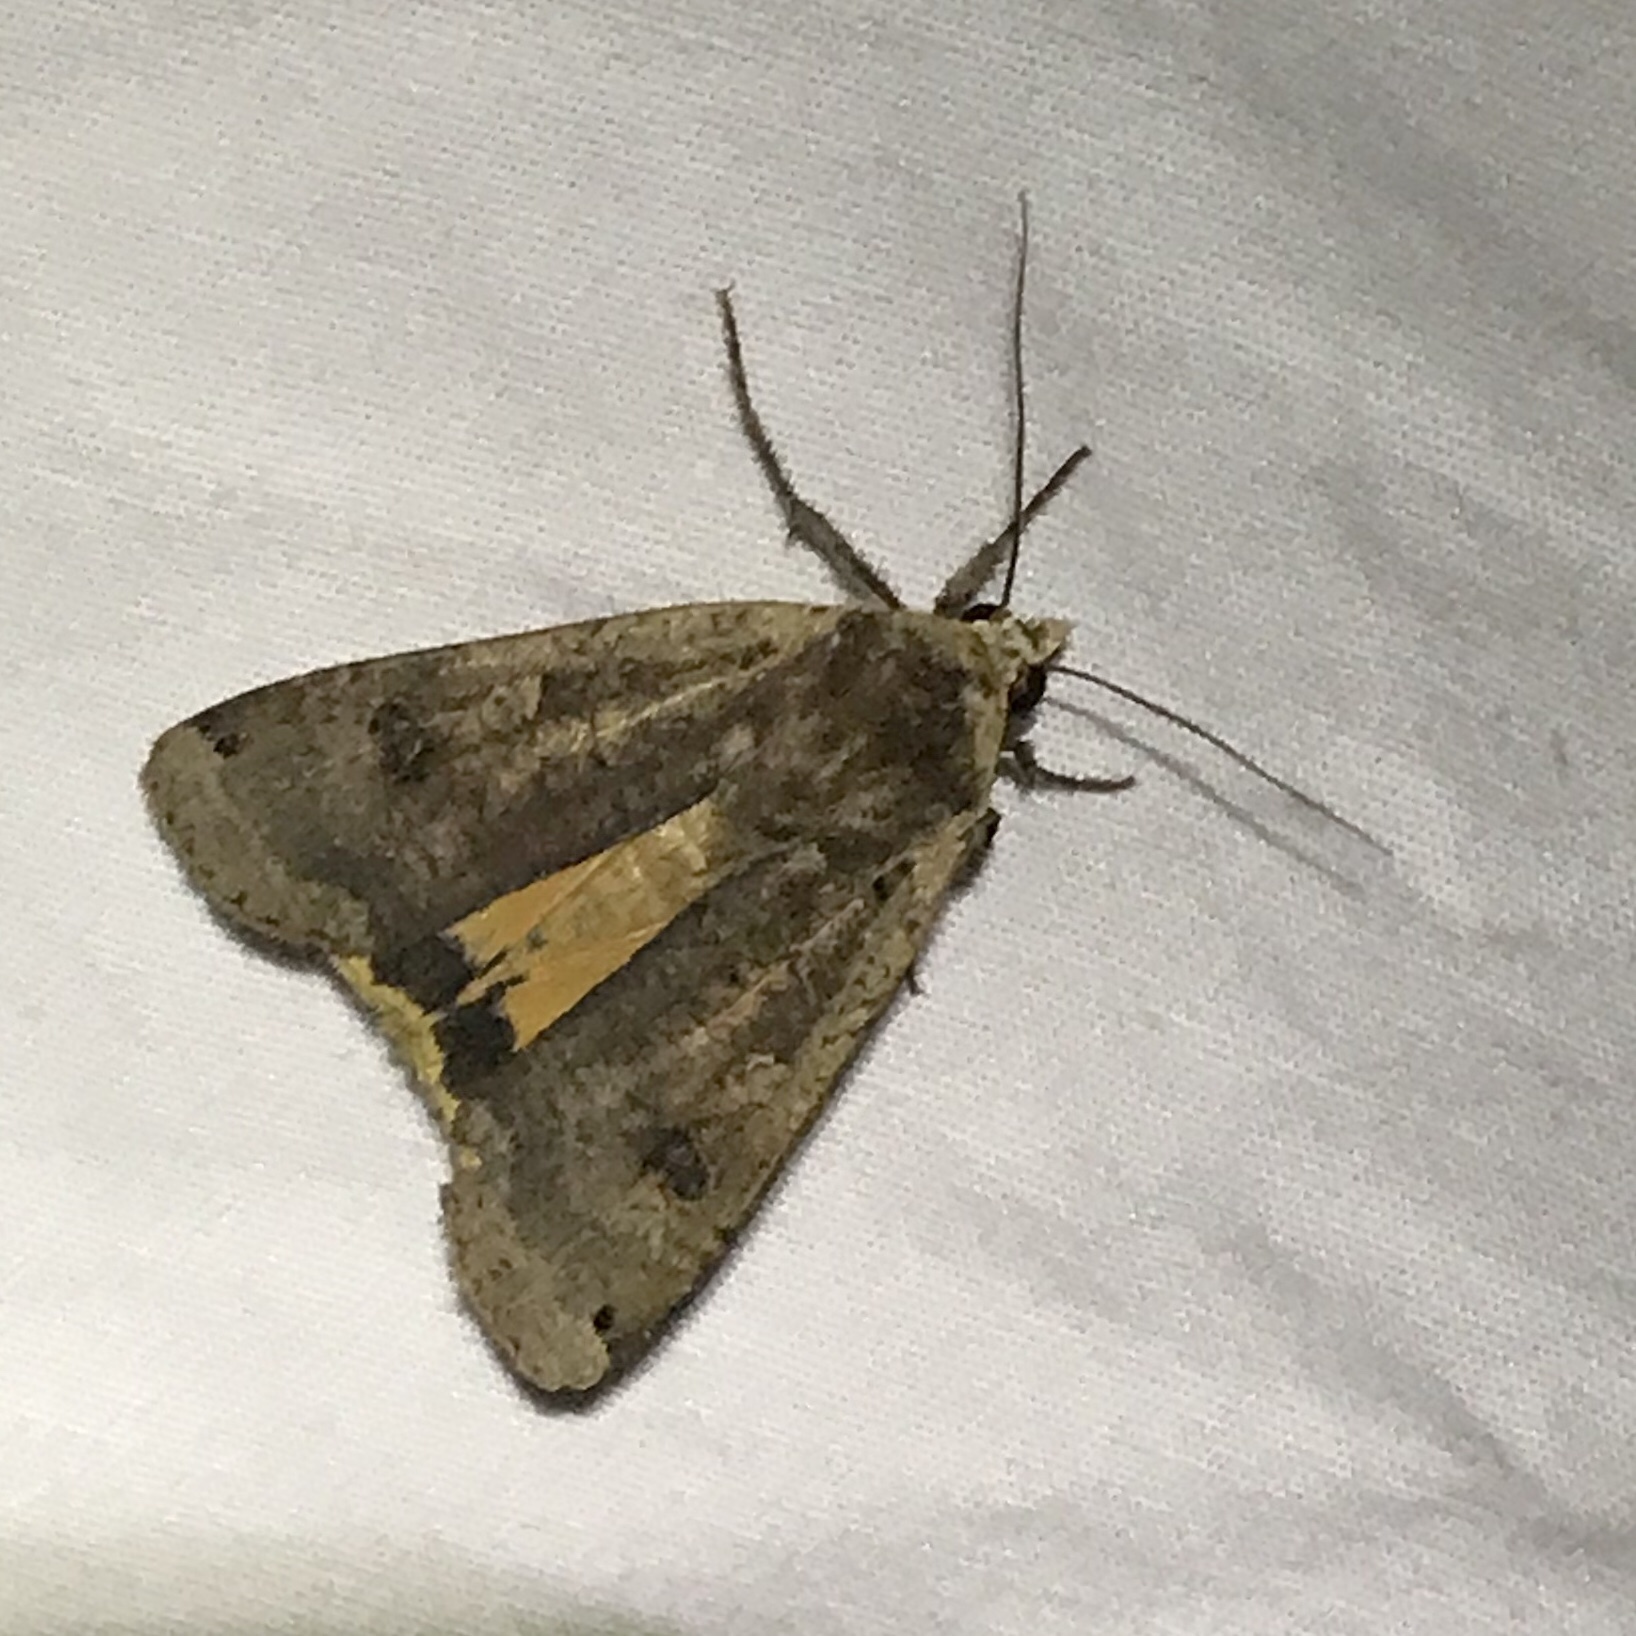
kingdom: Animalia
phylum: Arthropoda
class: Insecta
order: Lepidoptera
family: Noctuidae
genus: Noctua
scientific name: Noctua pronuba
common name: Large yellow underwing
